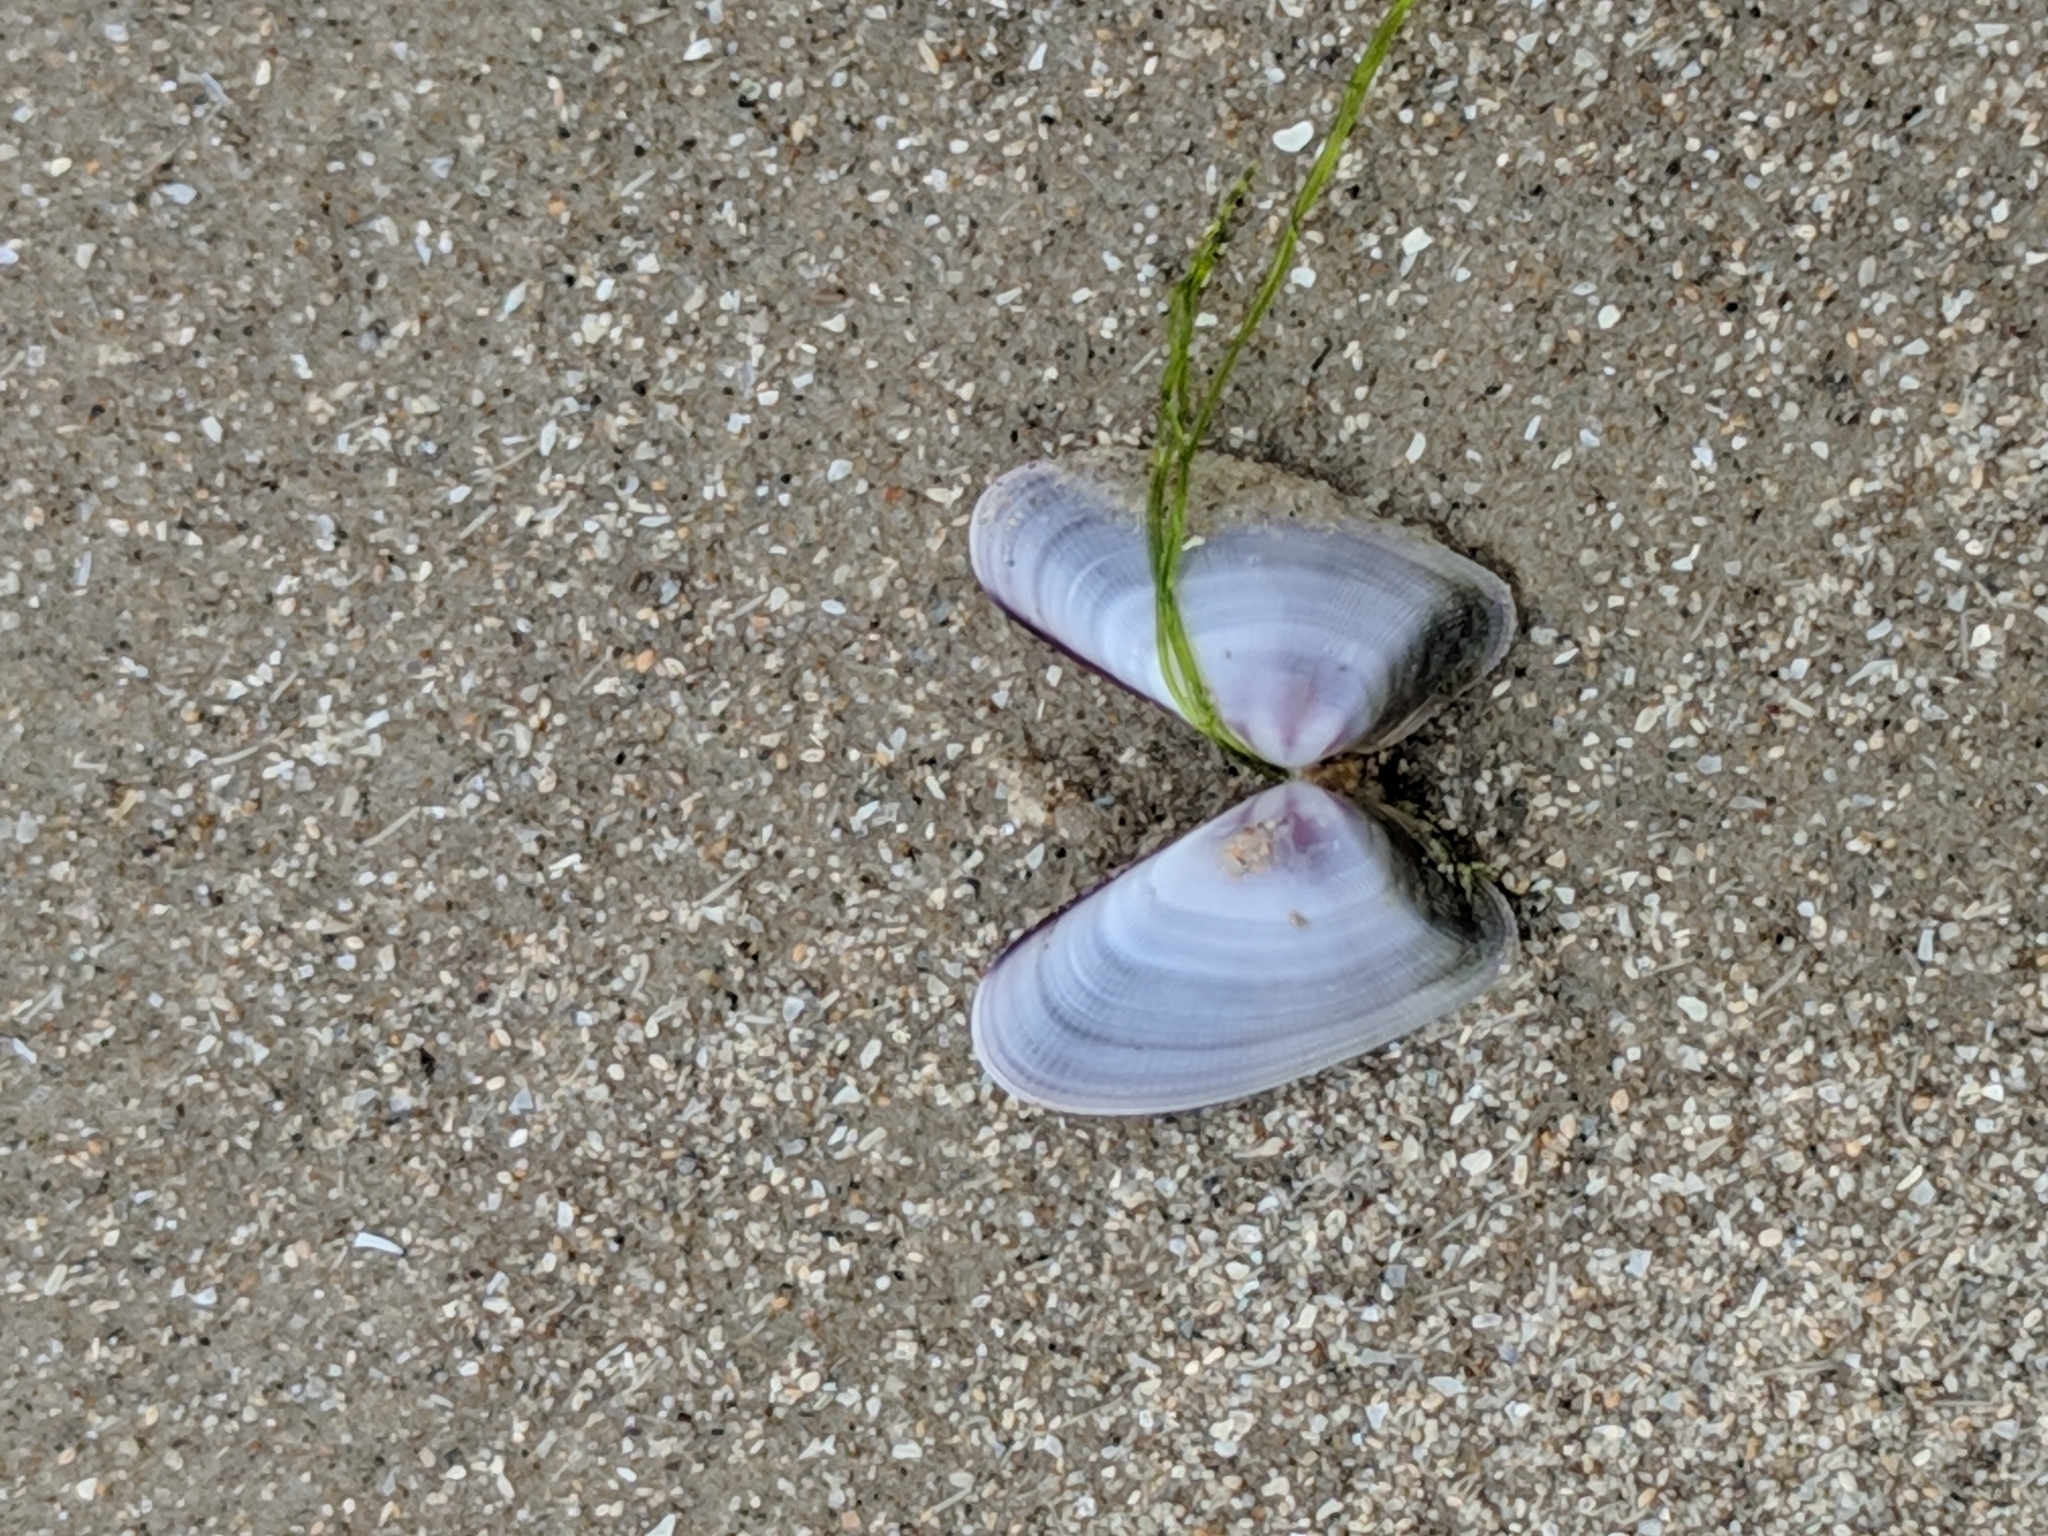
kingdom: Animalia
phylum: Mollusca
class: Bivalvia
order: Cardiida
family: Donacidae
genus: Donax
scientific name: Donax variabilis
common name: Butterfly shell
